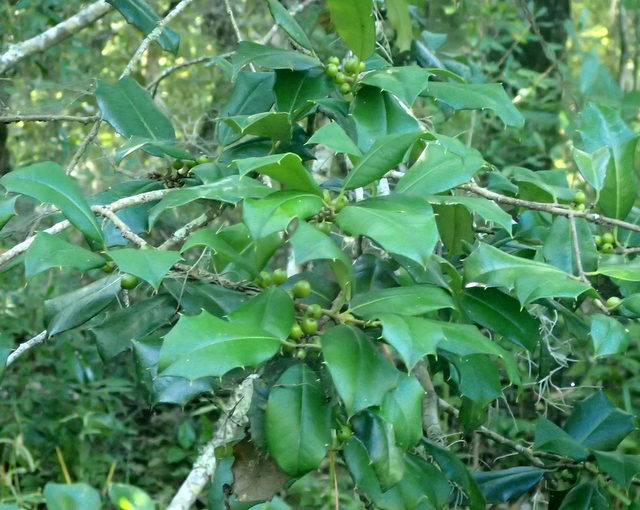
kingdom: Plantae
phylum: Tracheophyta
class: Magnoliopsida
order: Aquifoliales
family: Aquifoliaceae
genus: Ilex
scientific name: Ilex opaca
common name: American holly
